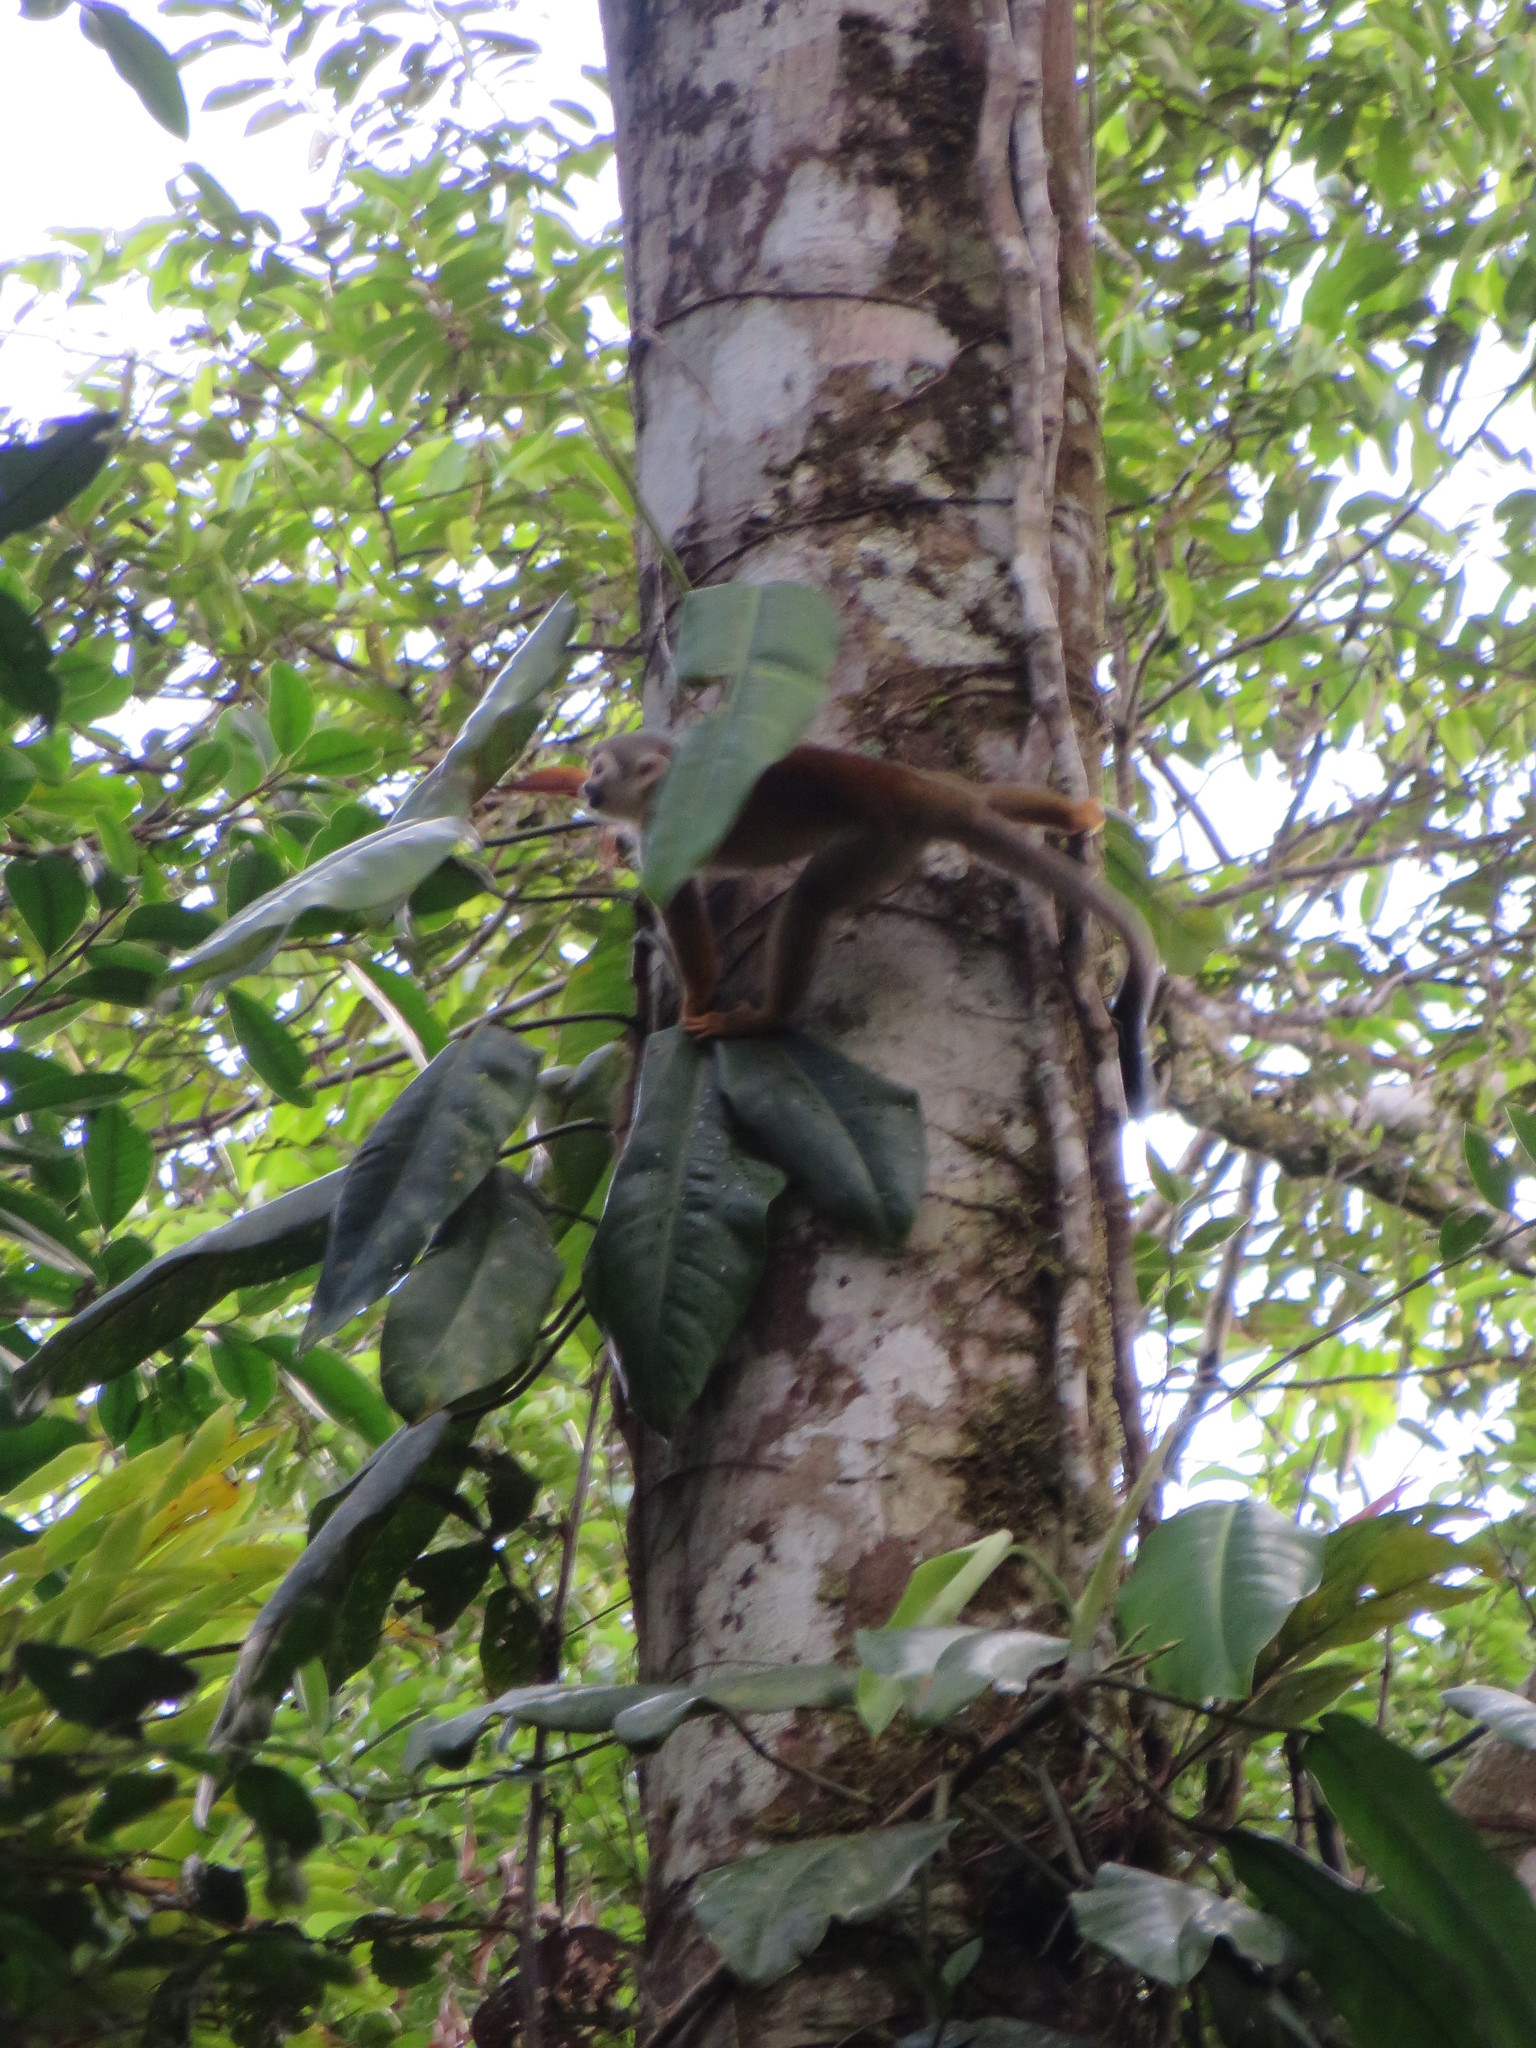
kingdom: Animalia
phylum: Chordata
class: Mammalia
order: Primates
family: Cebidae
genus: Saimiri
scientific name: Saimiri cassiquiarensis
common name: Humboldt’s squirrel monkey
